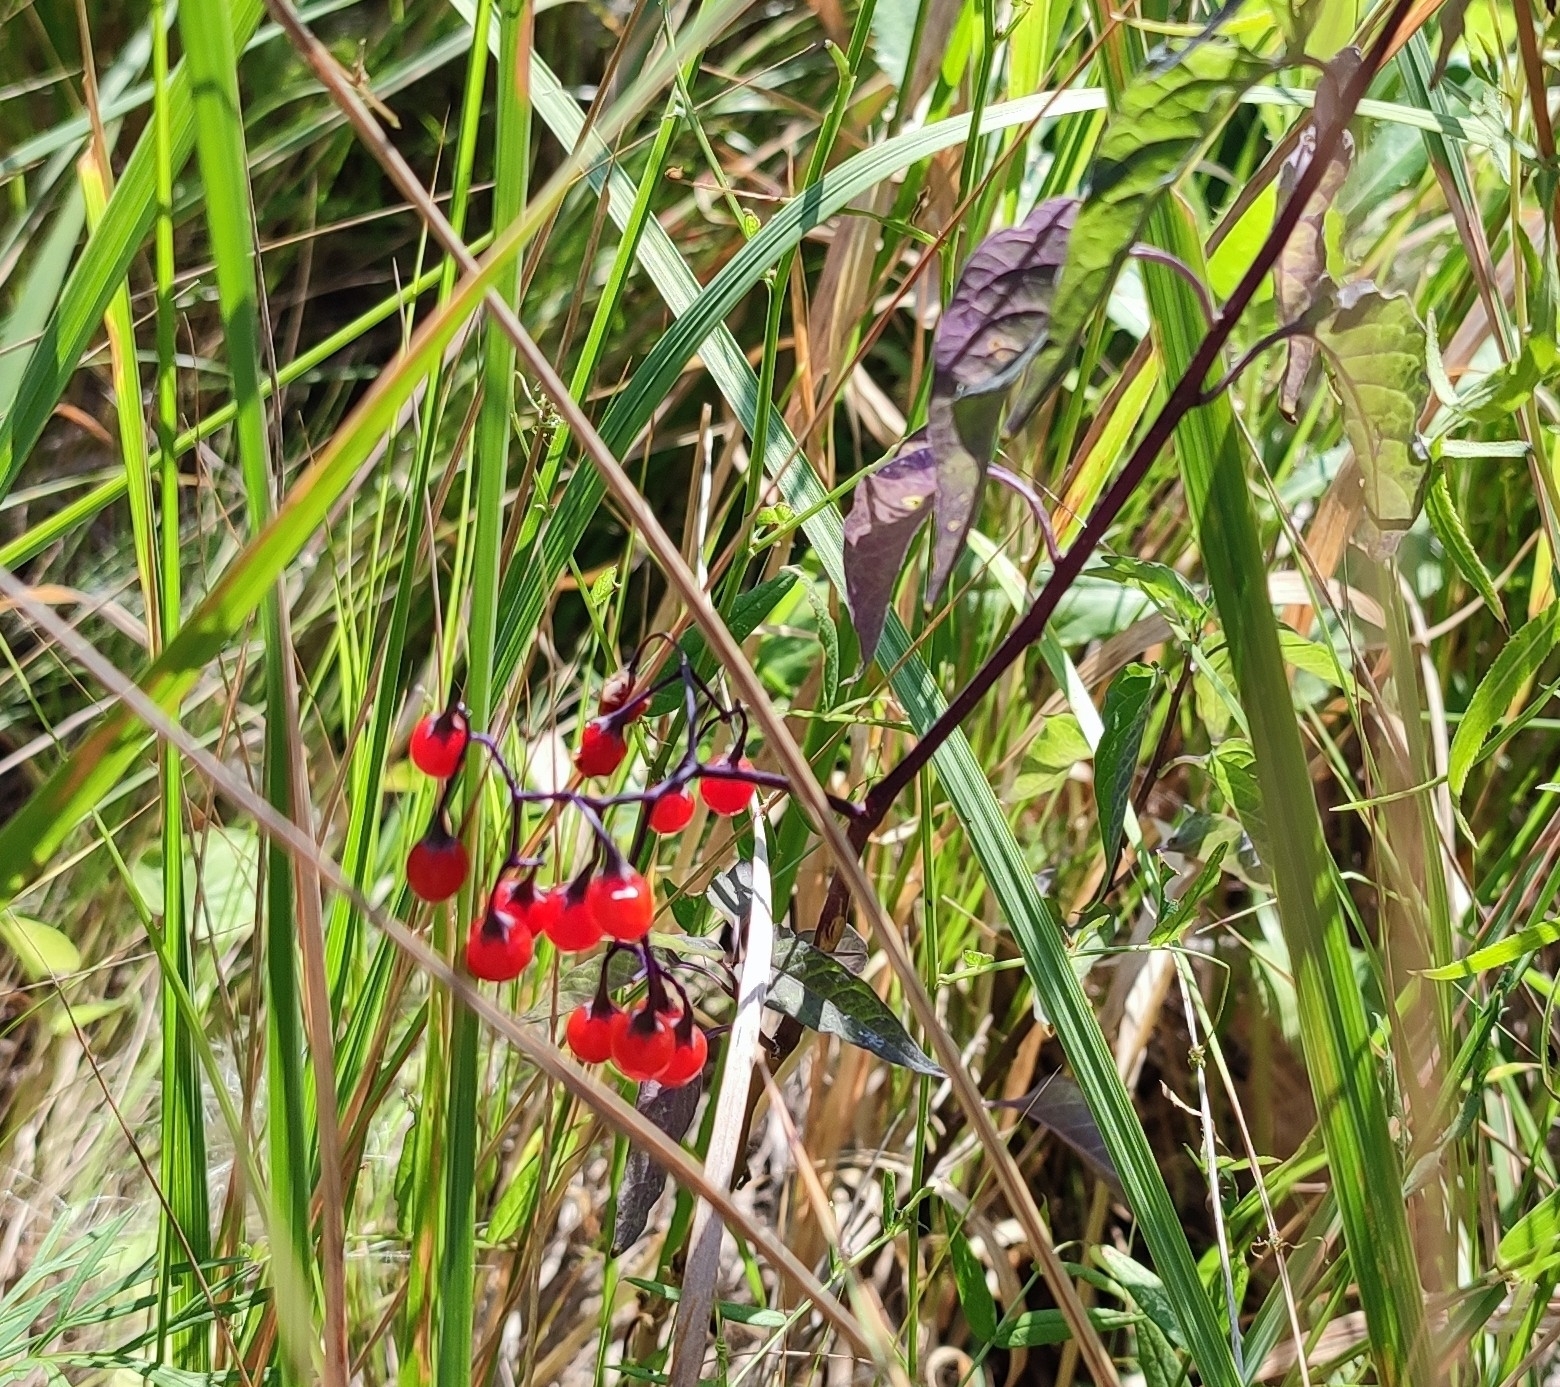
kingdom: Plantae
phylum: Tracheophyta
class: Magnoliopsida
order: Solanales
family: Solanaceae
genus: Solanum
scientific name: Solanum dulcamara
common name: Climbing nightshade
